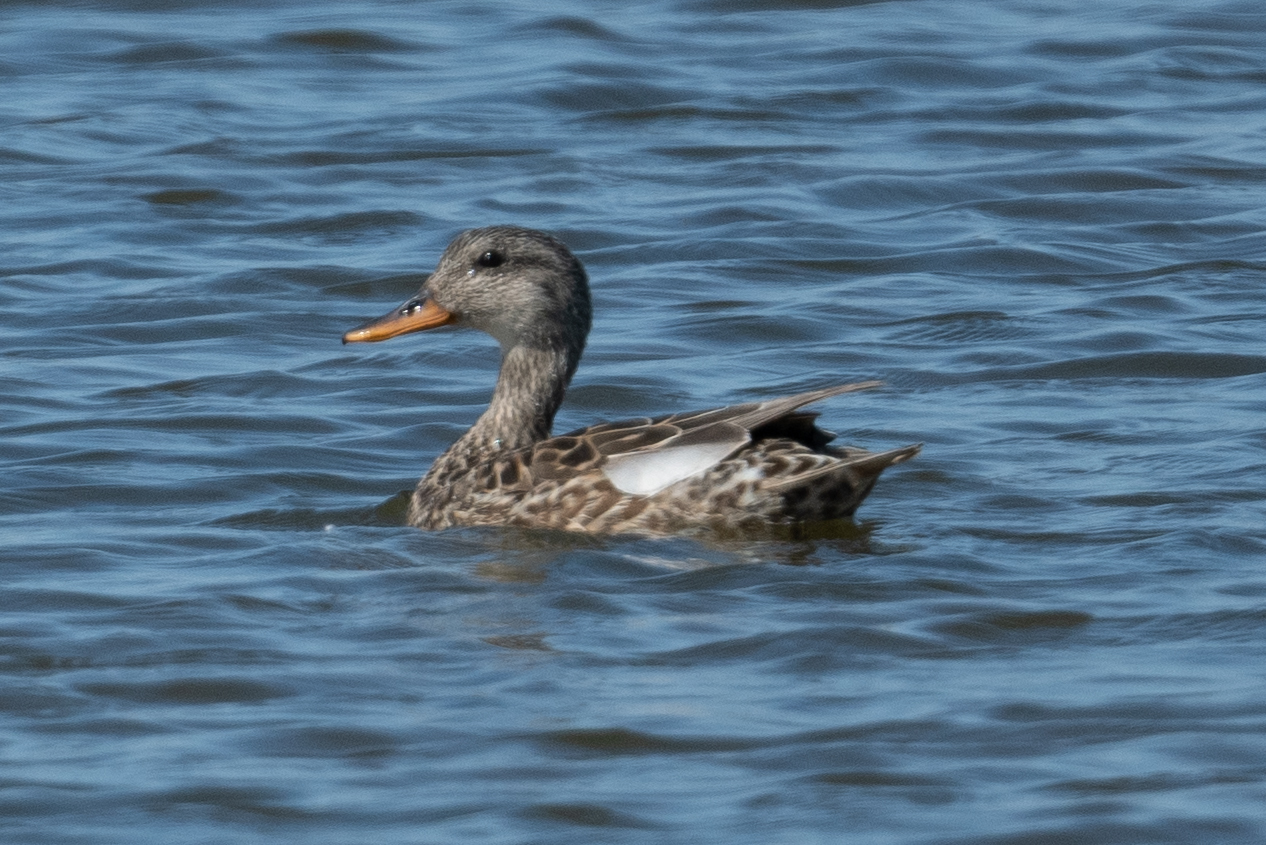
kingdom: Animalia
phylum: Chordata
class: Aves
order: Anseriformes
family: Anatidae
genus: Mareca
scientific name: Mareca strepera
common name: Gadwall
